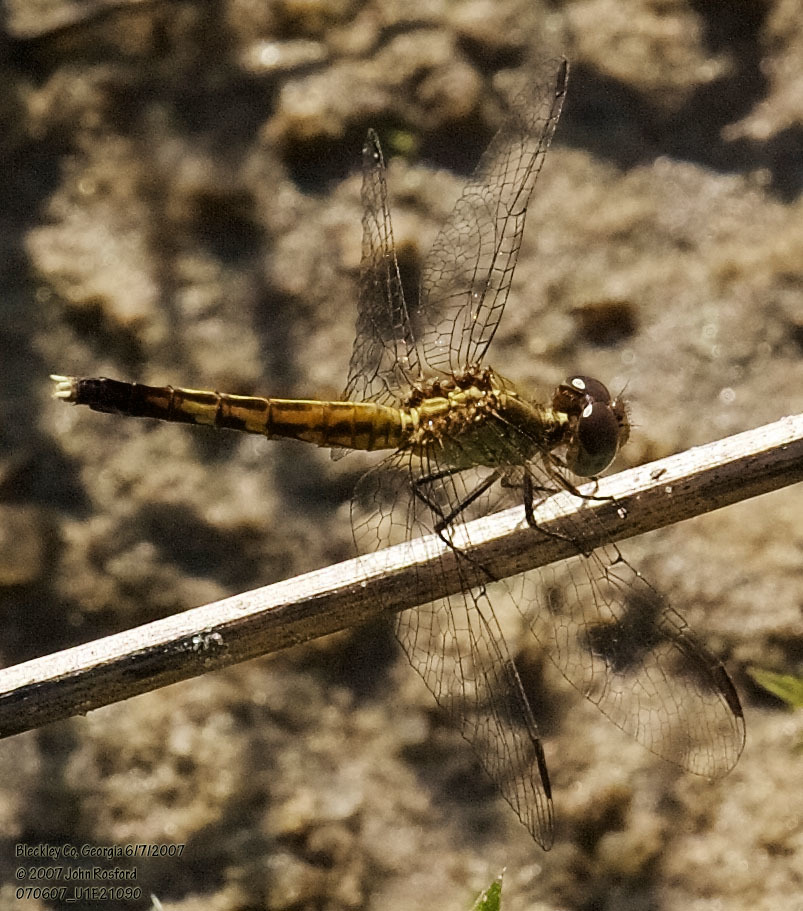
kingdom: Animalia
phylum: Arthropoda
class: Insecta
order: Odonata
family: Libellulidae
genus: Erythrodiplax
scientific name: Erythrodiplax minuscula
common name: Little blue dragonlet
